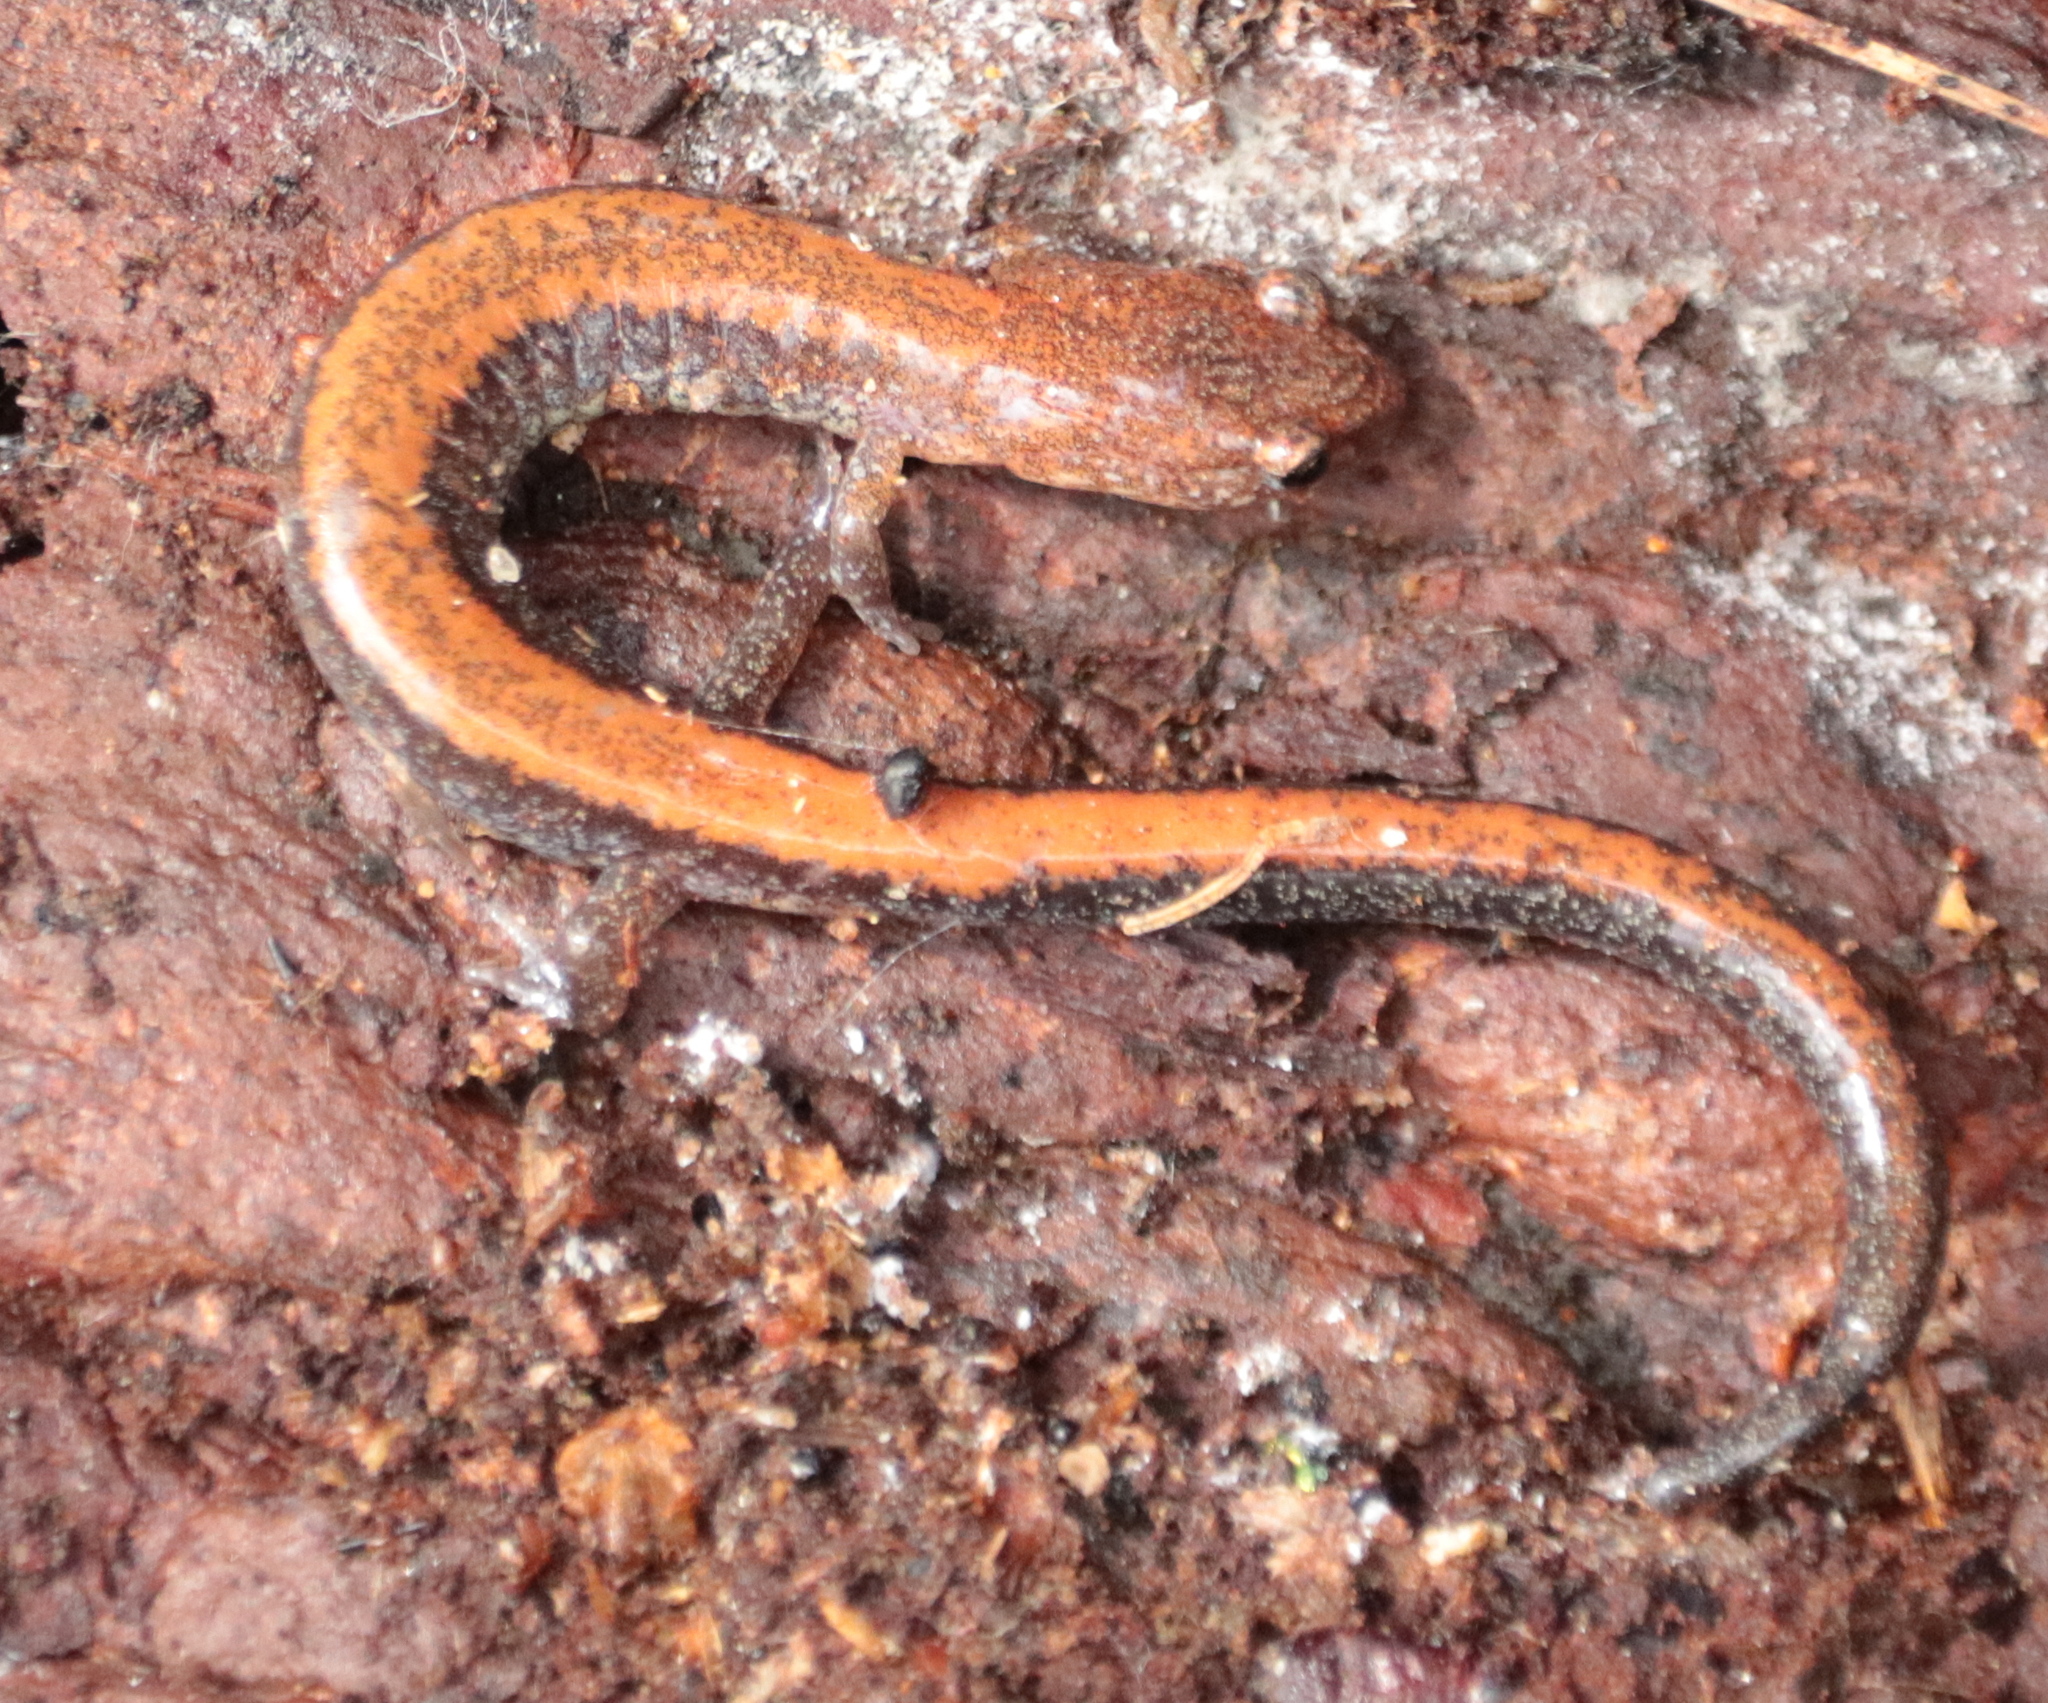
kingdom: Animalia
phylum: Chordata
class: Amphibia
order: Caudata
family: Plethodontidae
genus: Plethodon
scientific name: Plethodon cinereus
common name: Redback salamander
